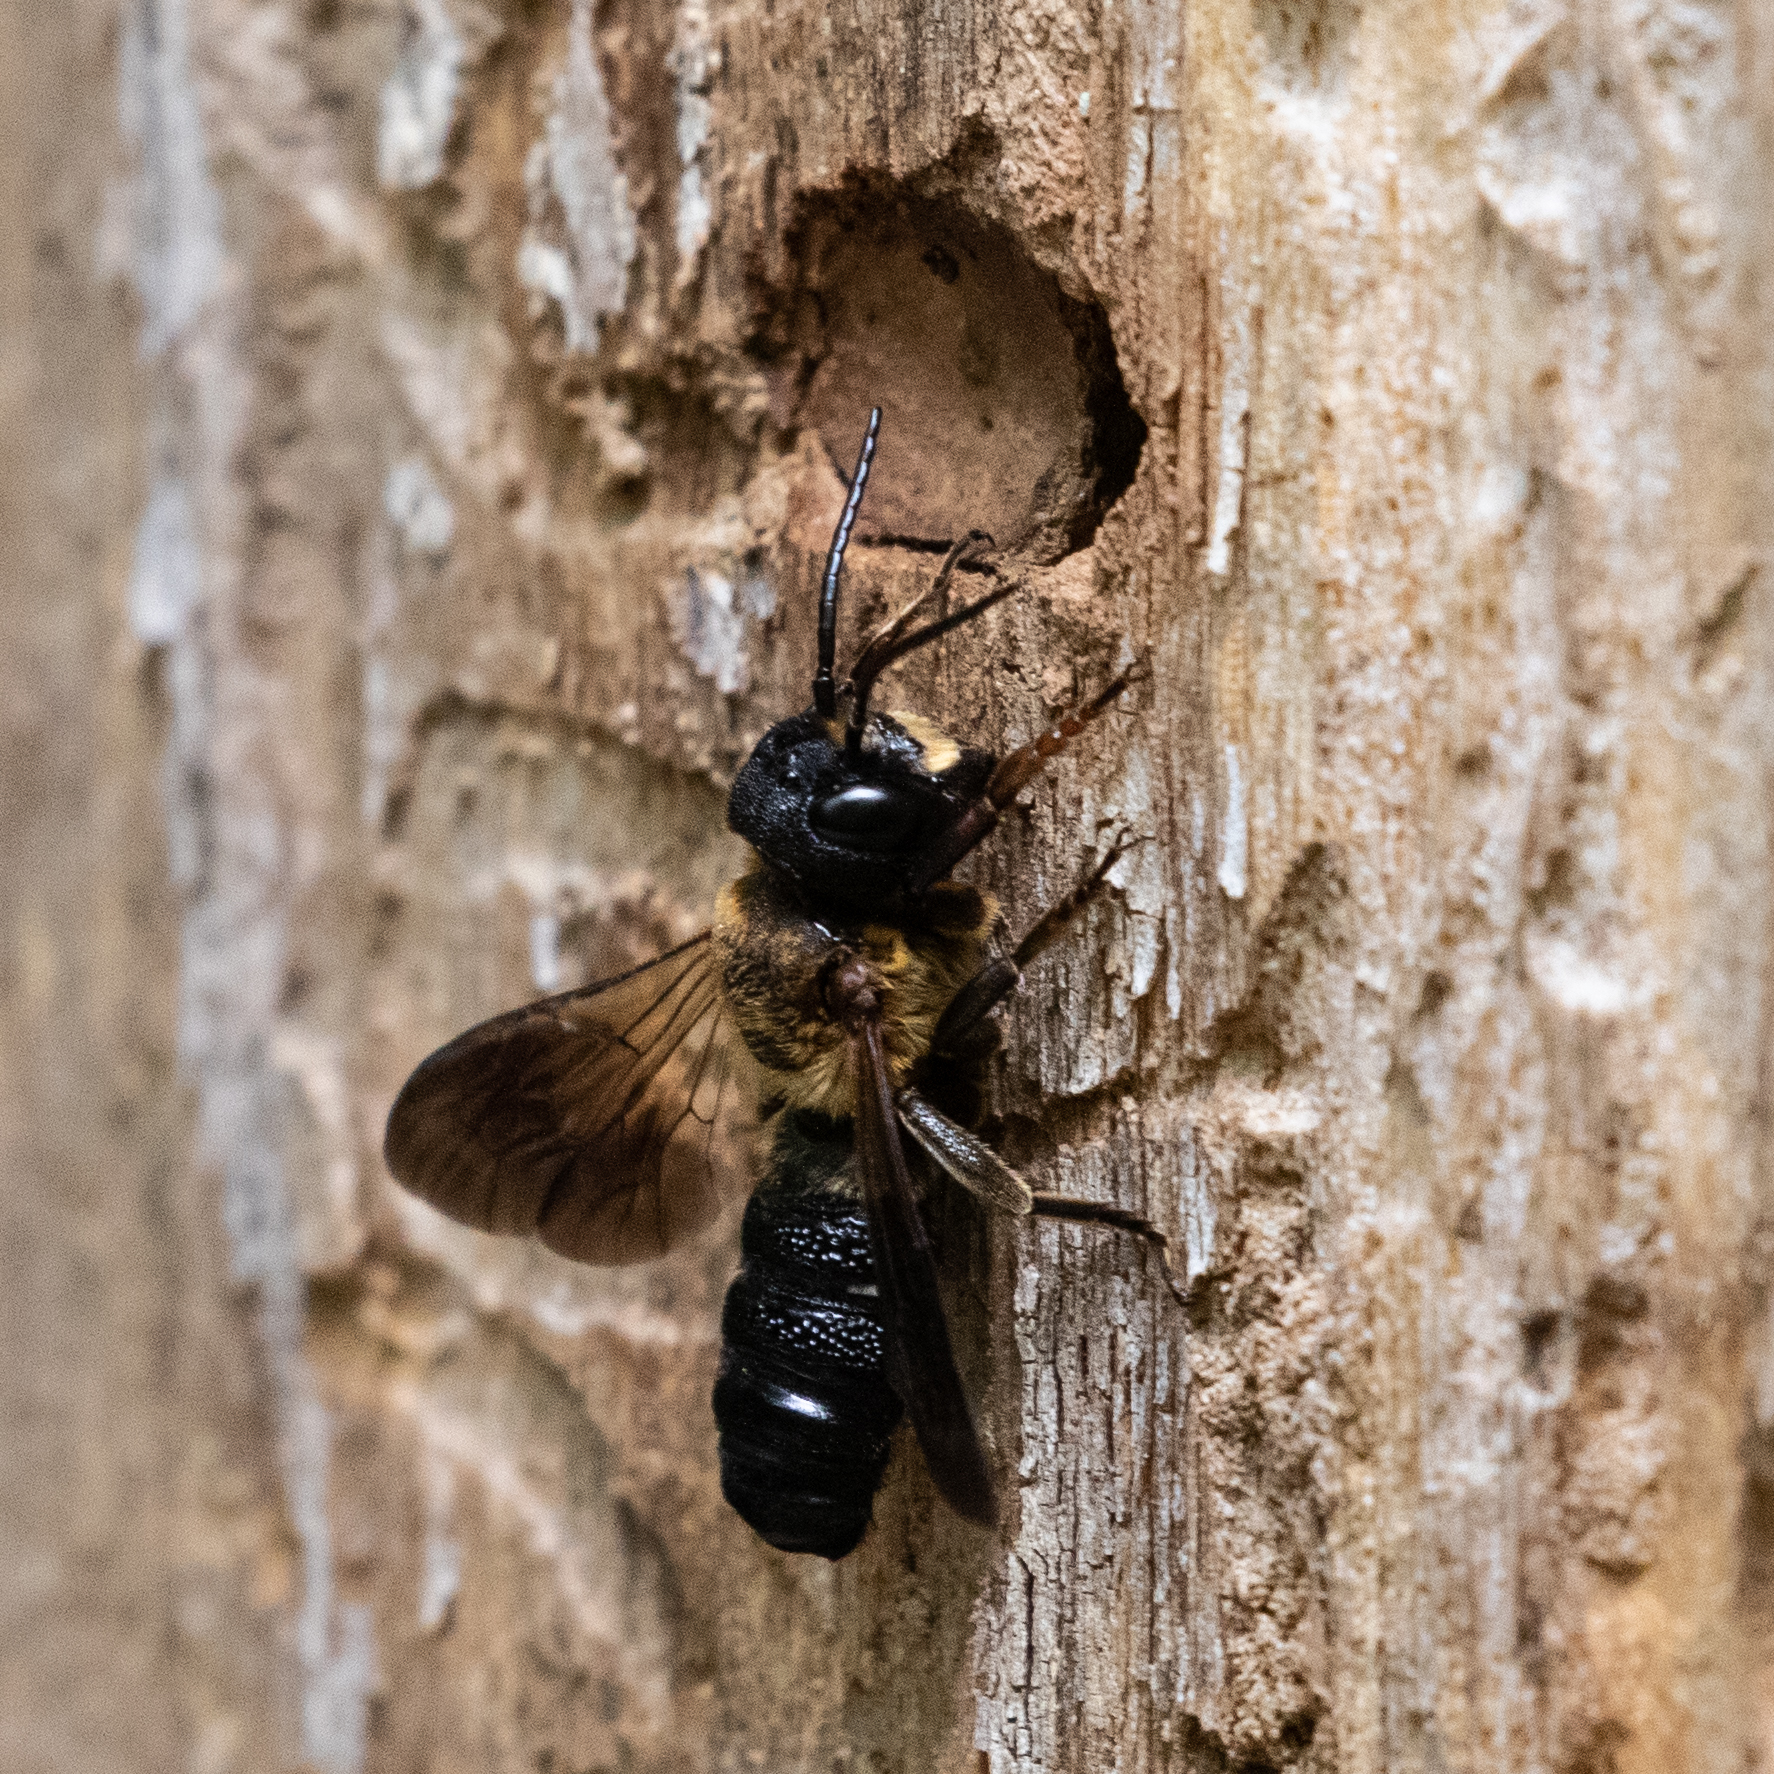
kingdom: Animalia
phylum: Arthropoda
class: Insecta
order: Hymenoptera
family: Megachilidae
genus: Megachile
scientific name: Megachile sculpturalis
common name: Sculptured resin bee
